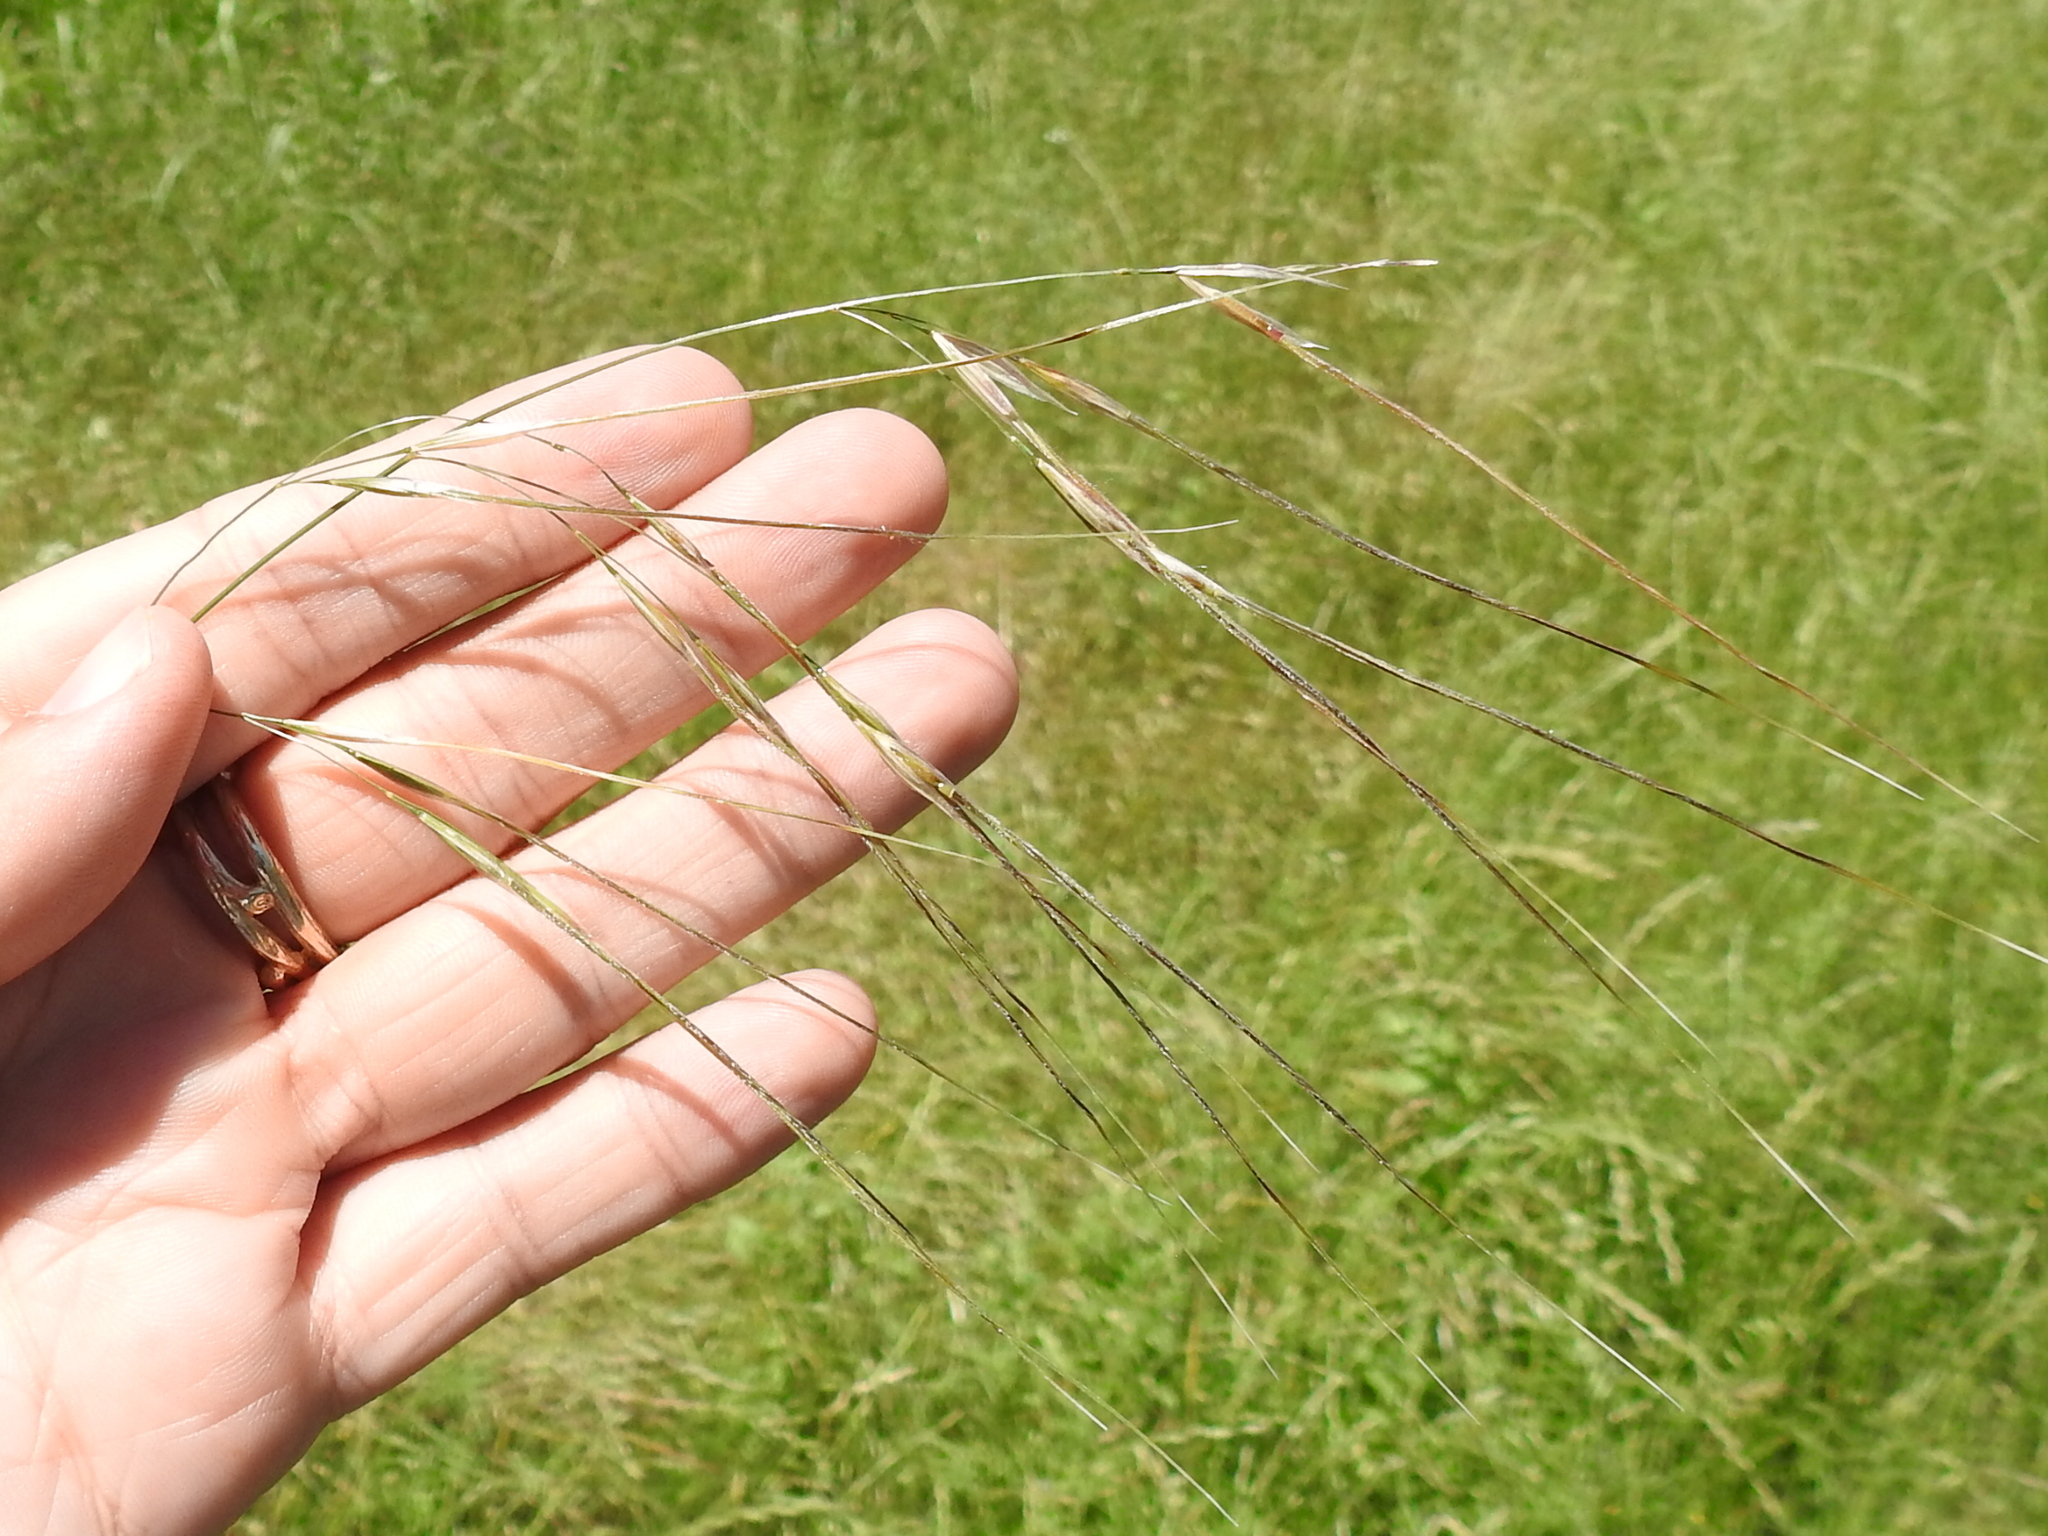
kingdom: Plantae
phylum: Tracheophyta
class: Liliopsida
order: Poales
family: Poaceae
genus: Nassella
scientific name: Nassella leucotricha
